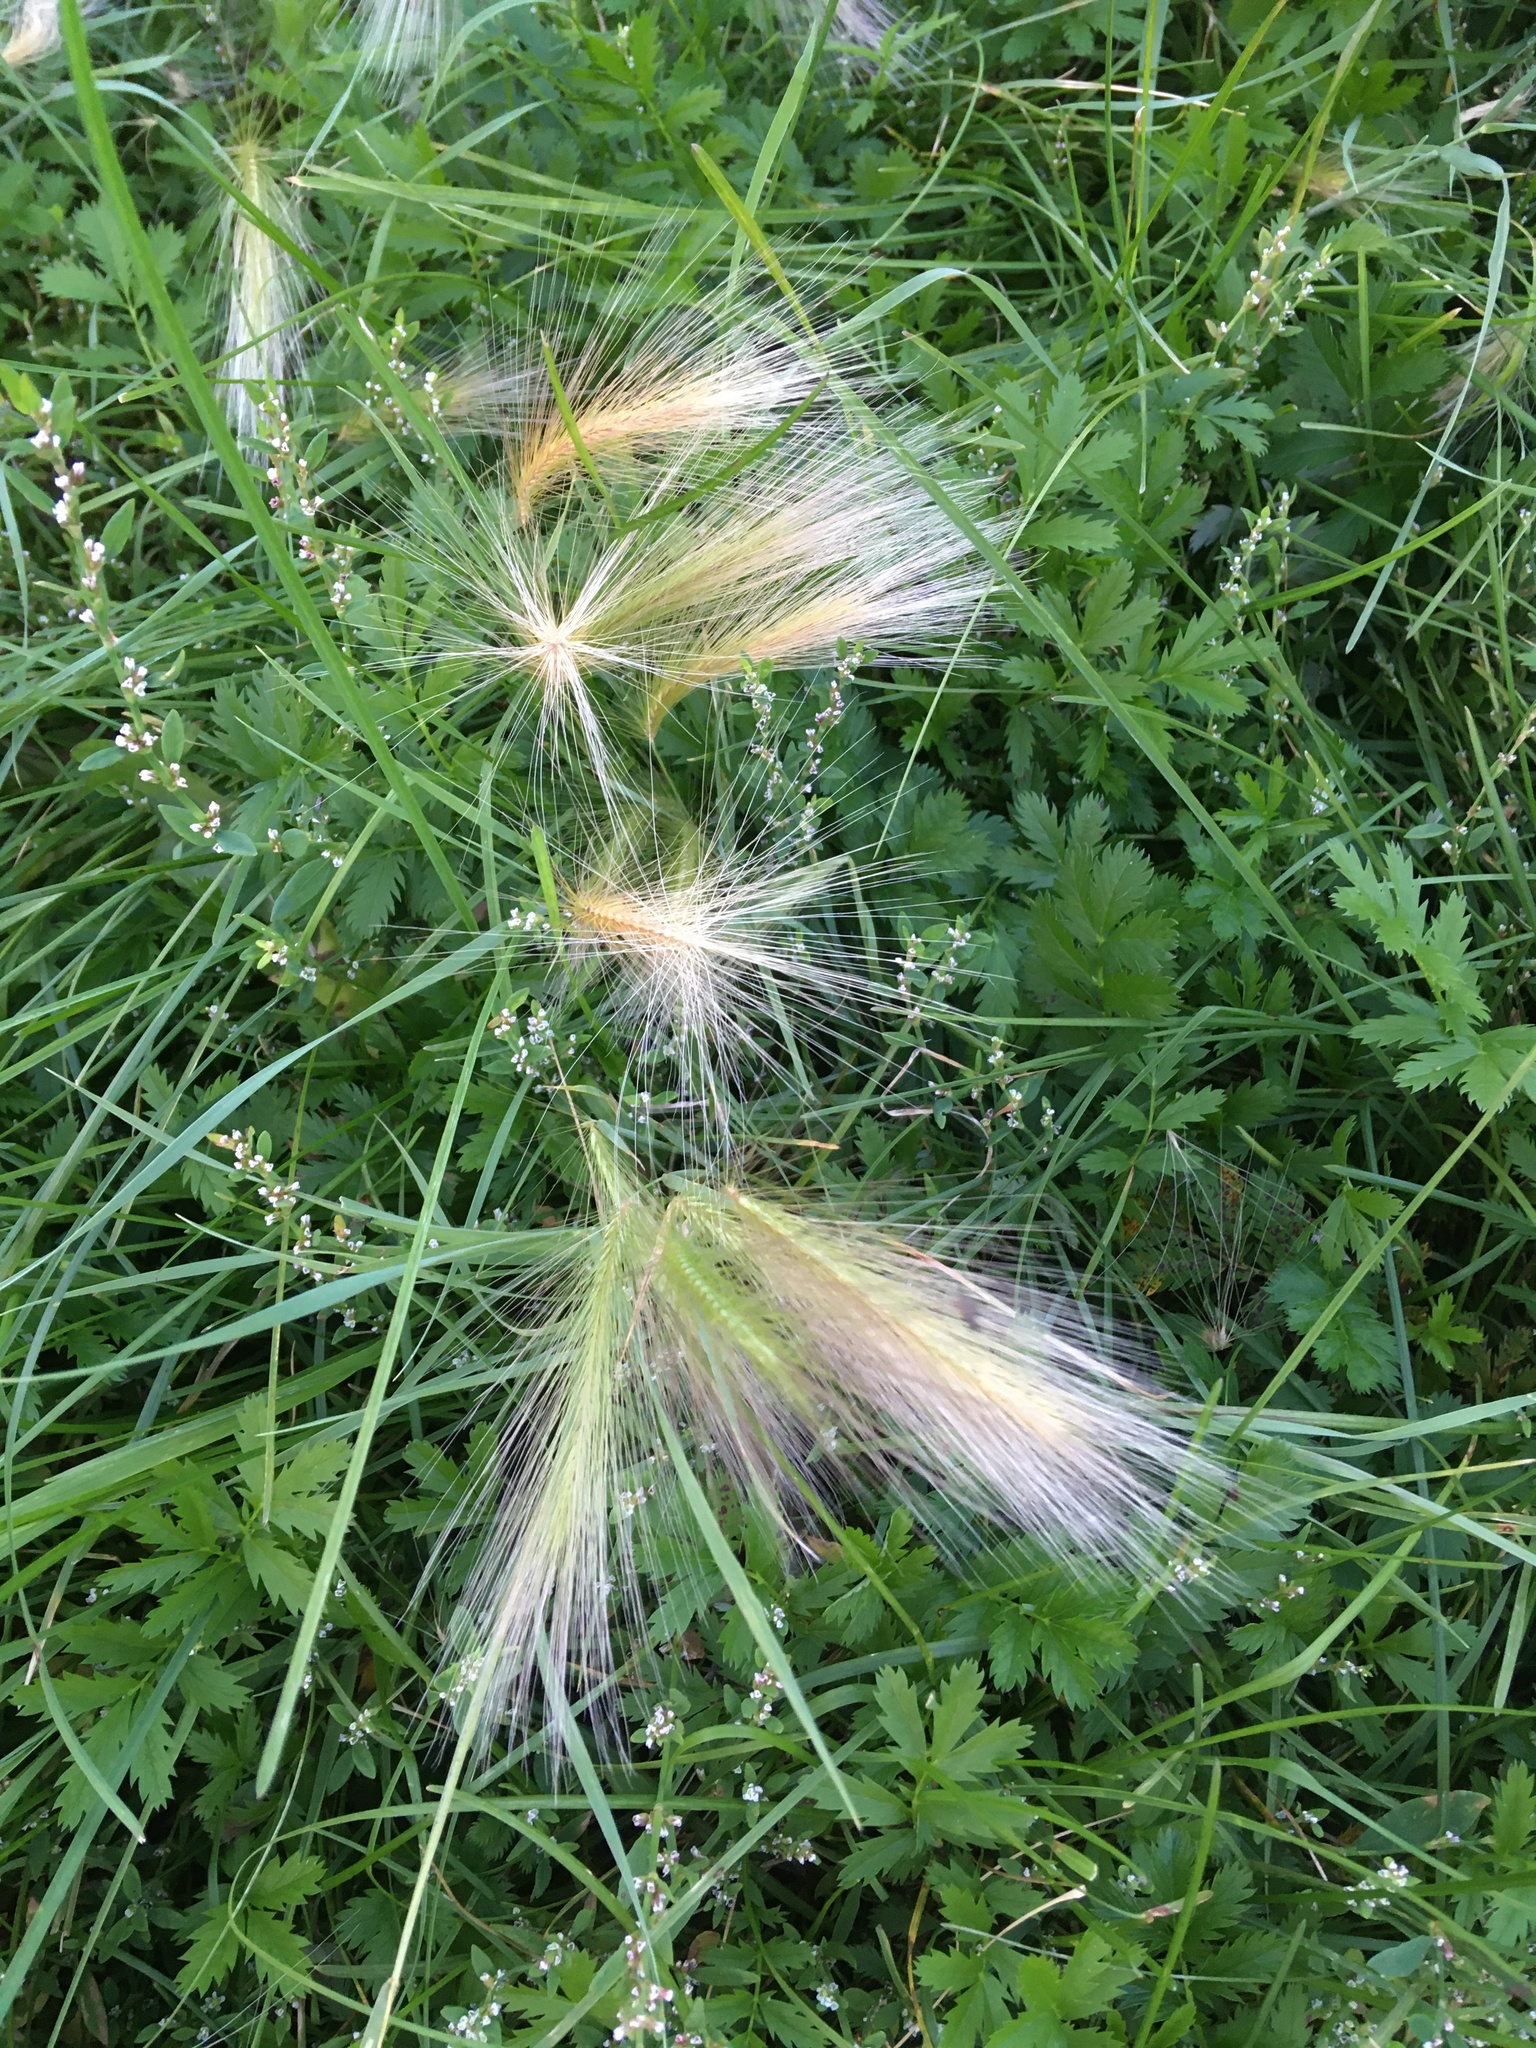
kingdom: Plantae
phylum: Tracheophyta
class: Liliopsida
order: Poales
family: Poaceae
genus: Hordeum
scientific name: Hordeum jubatum
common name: Foxtail barley
